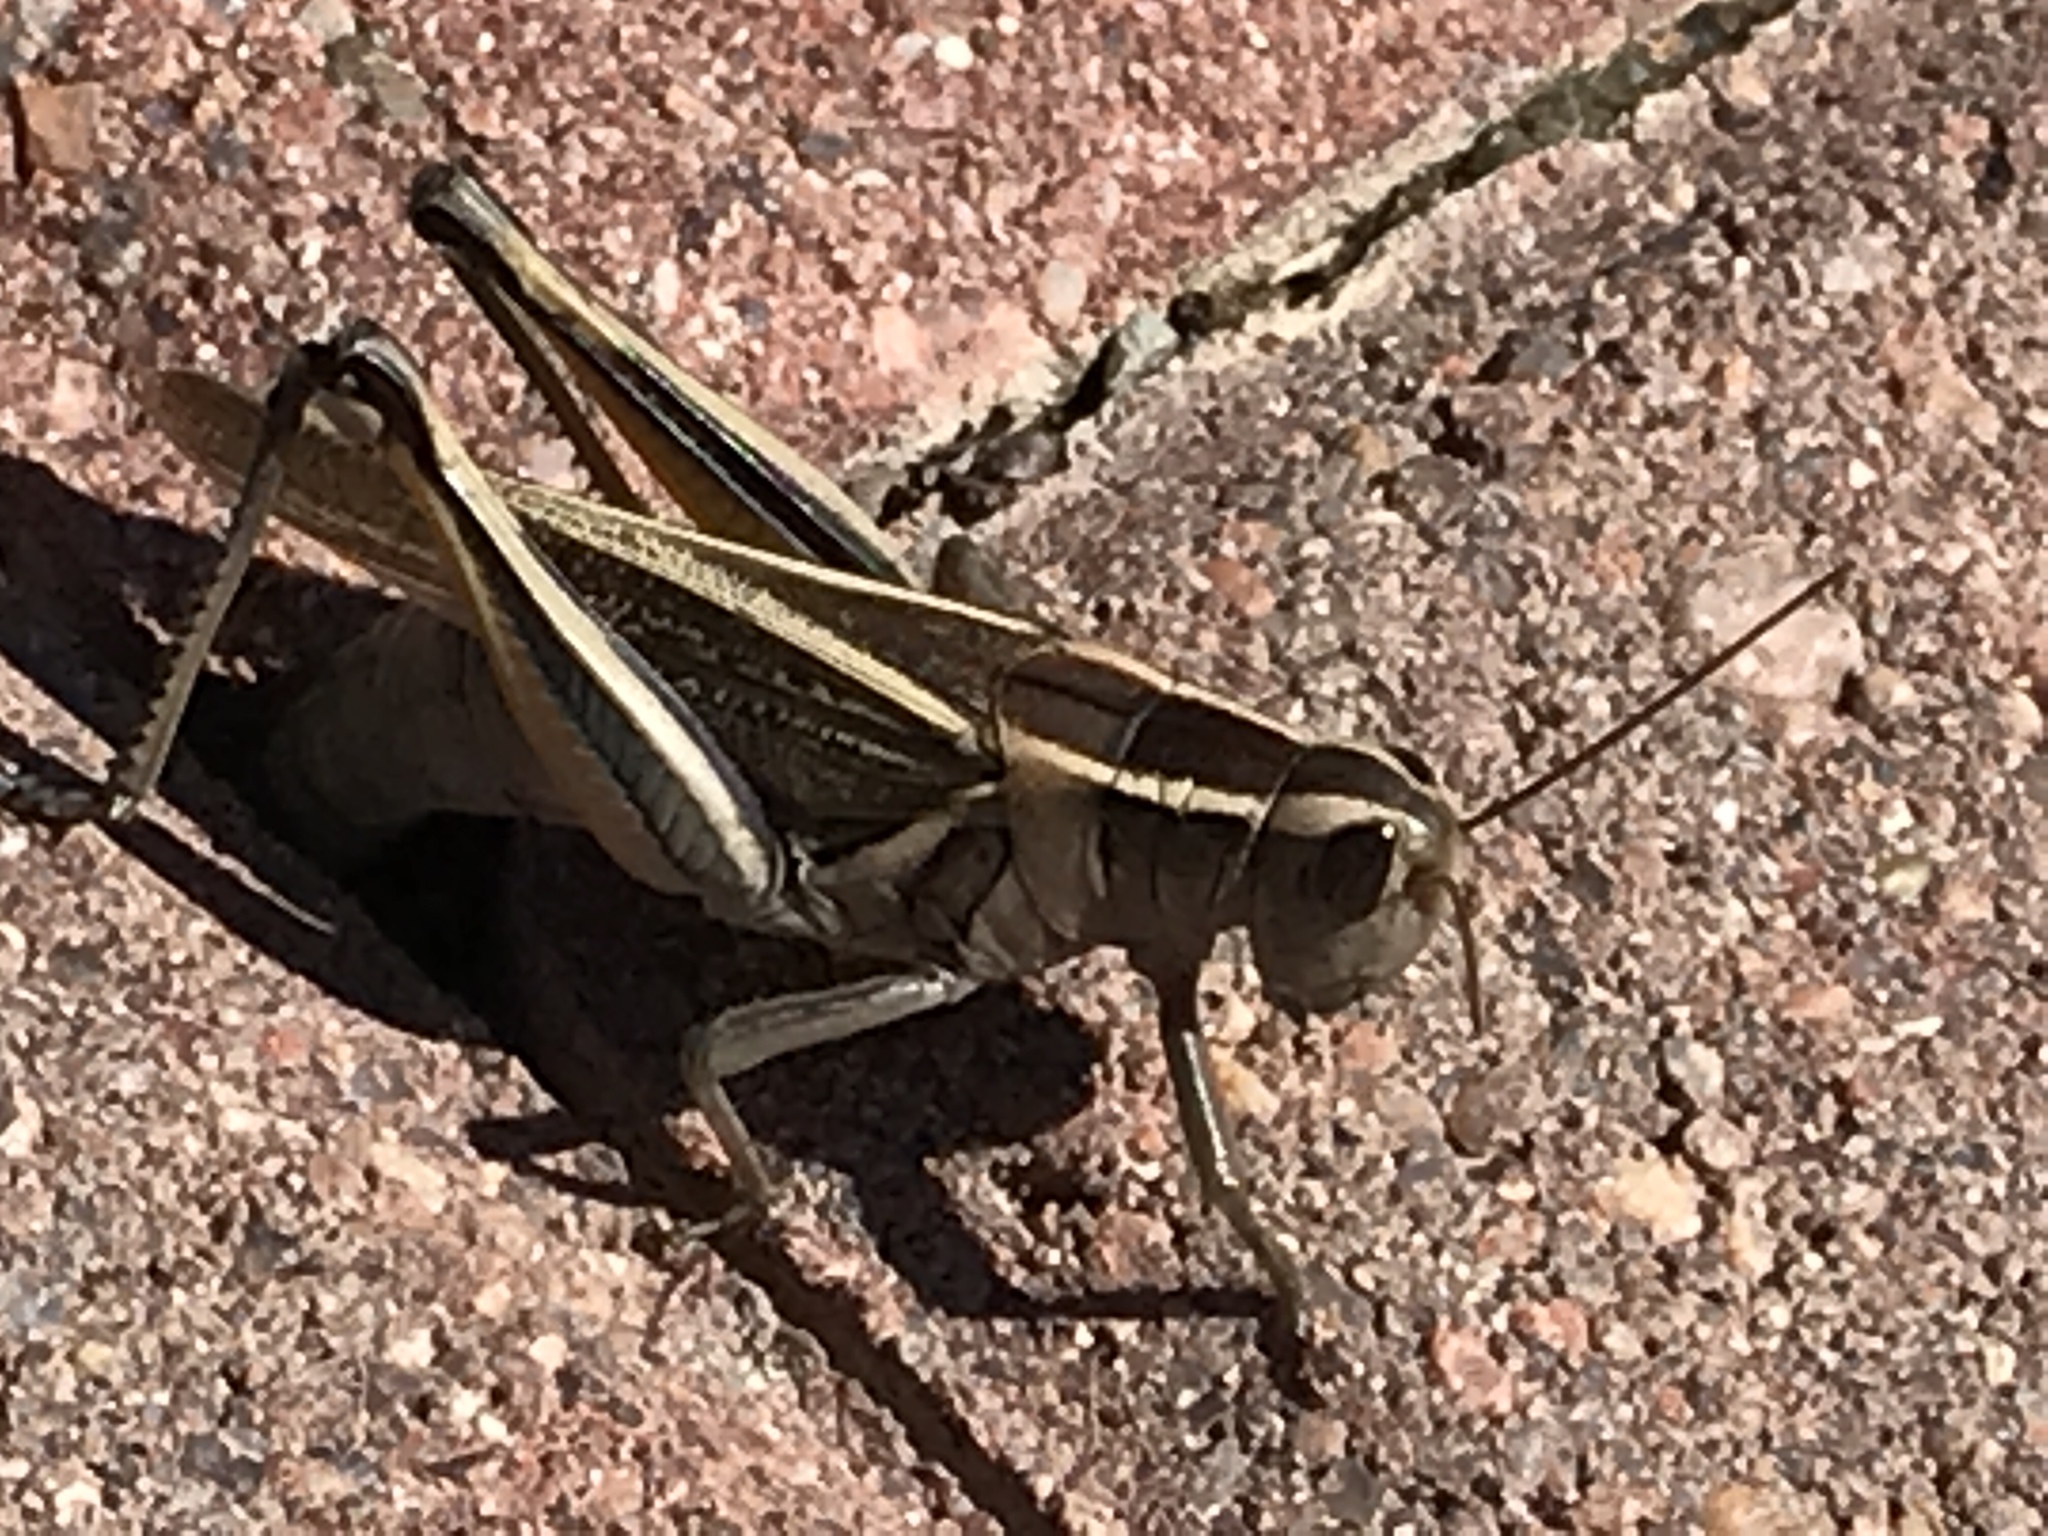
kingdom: Animalia
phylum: Arthropoda
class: Insecta
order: Orthoptera
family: Acrididae
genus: Melanoplus
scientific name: Melanoplus bivittatus
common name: Two-striped grasshopper
